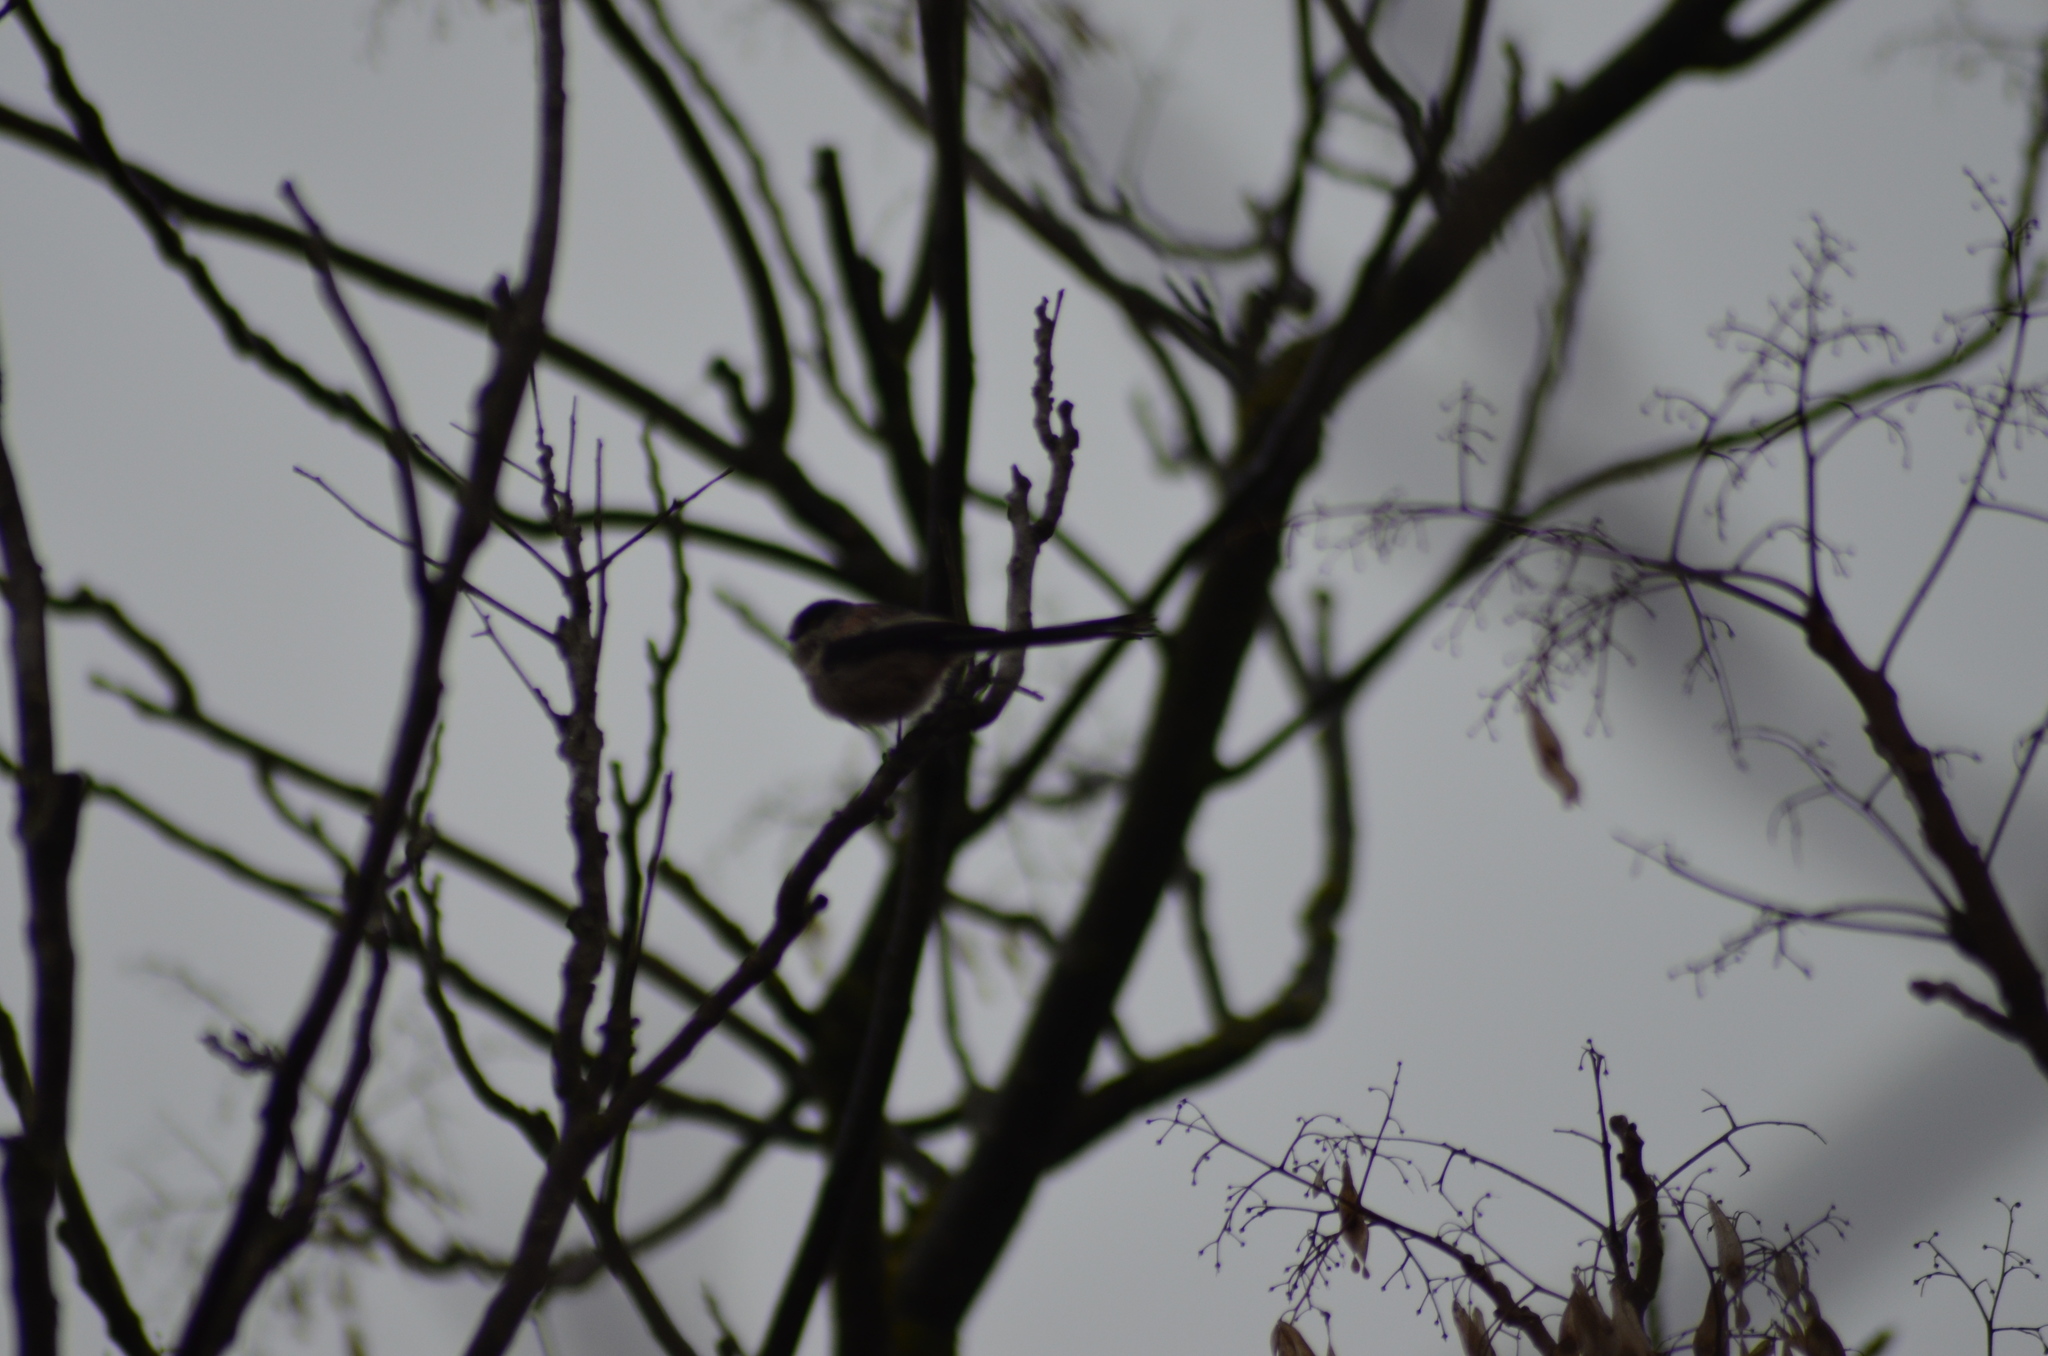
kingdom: Animalia
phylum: Chordata
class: Aves
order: Passeriformes
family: Aegithalidae
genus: Aegithalos
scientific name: Aegithalos caudatus
